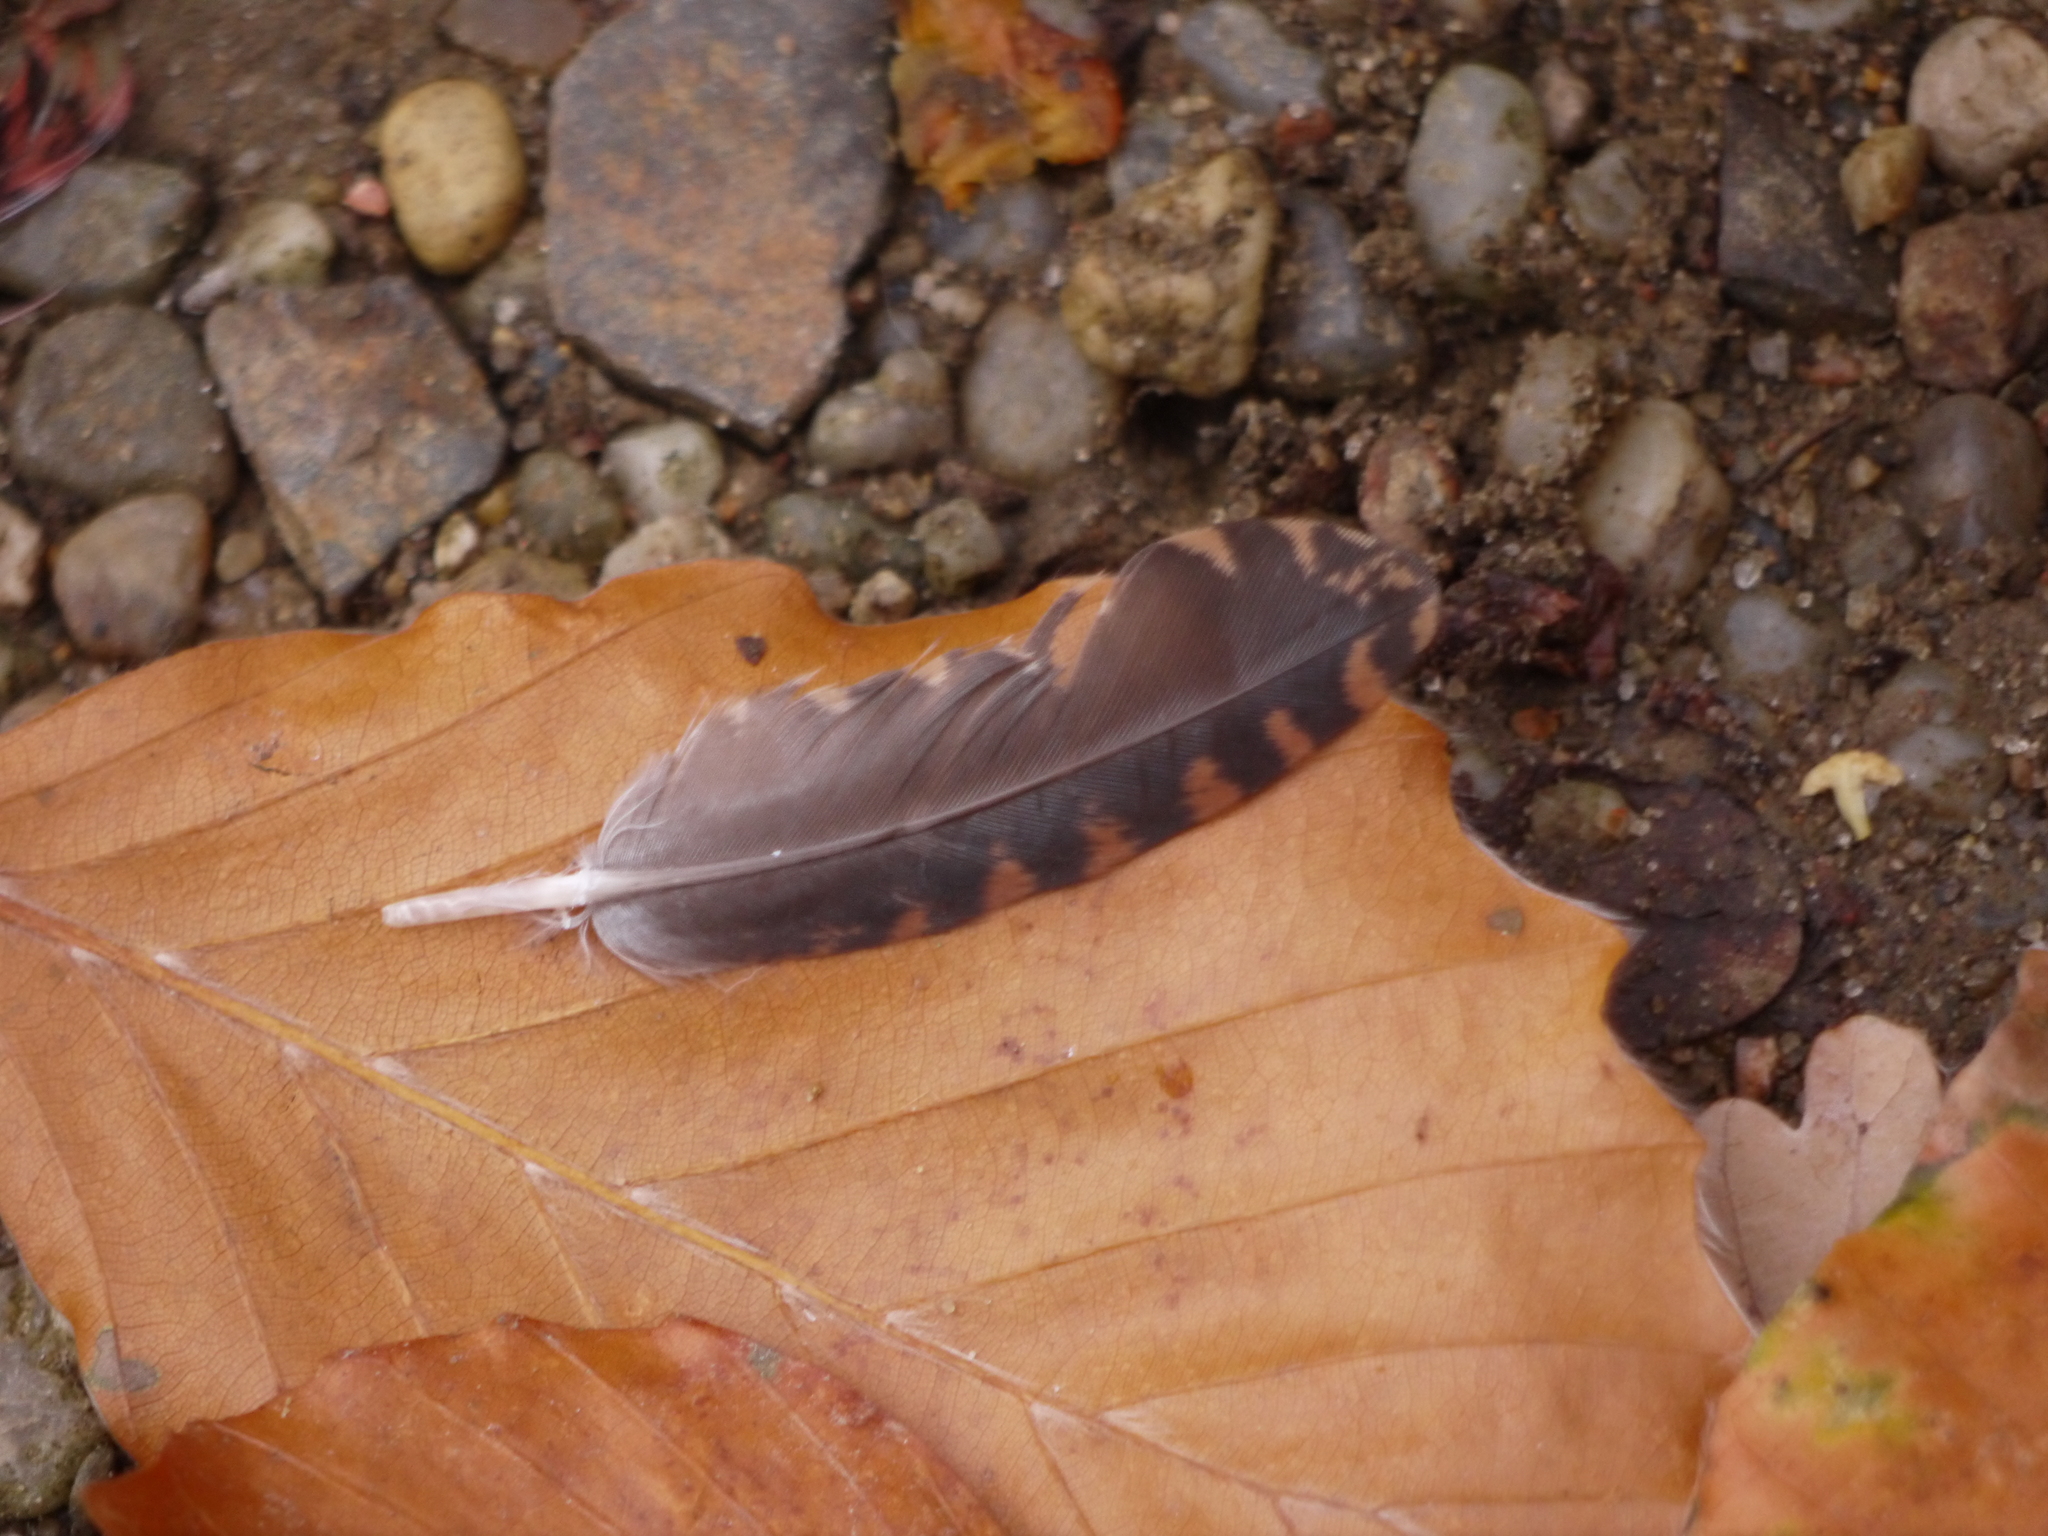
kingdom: Animalia
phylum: Chordata
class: Aves
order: Charadriiformes
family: Scolopacidae
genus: Scolopax
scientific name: Scolopax rusticola
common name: Eurasian woodcock
